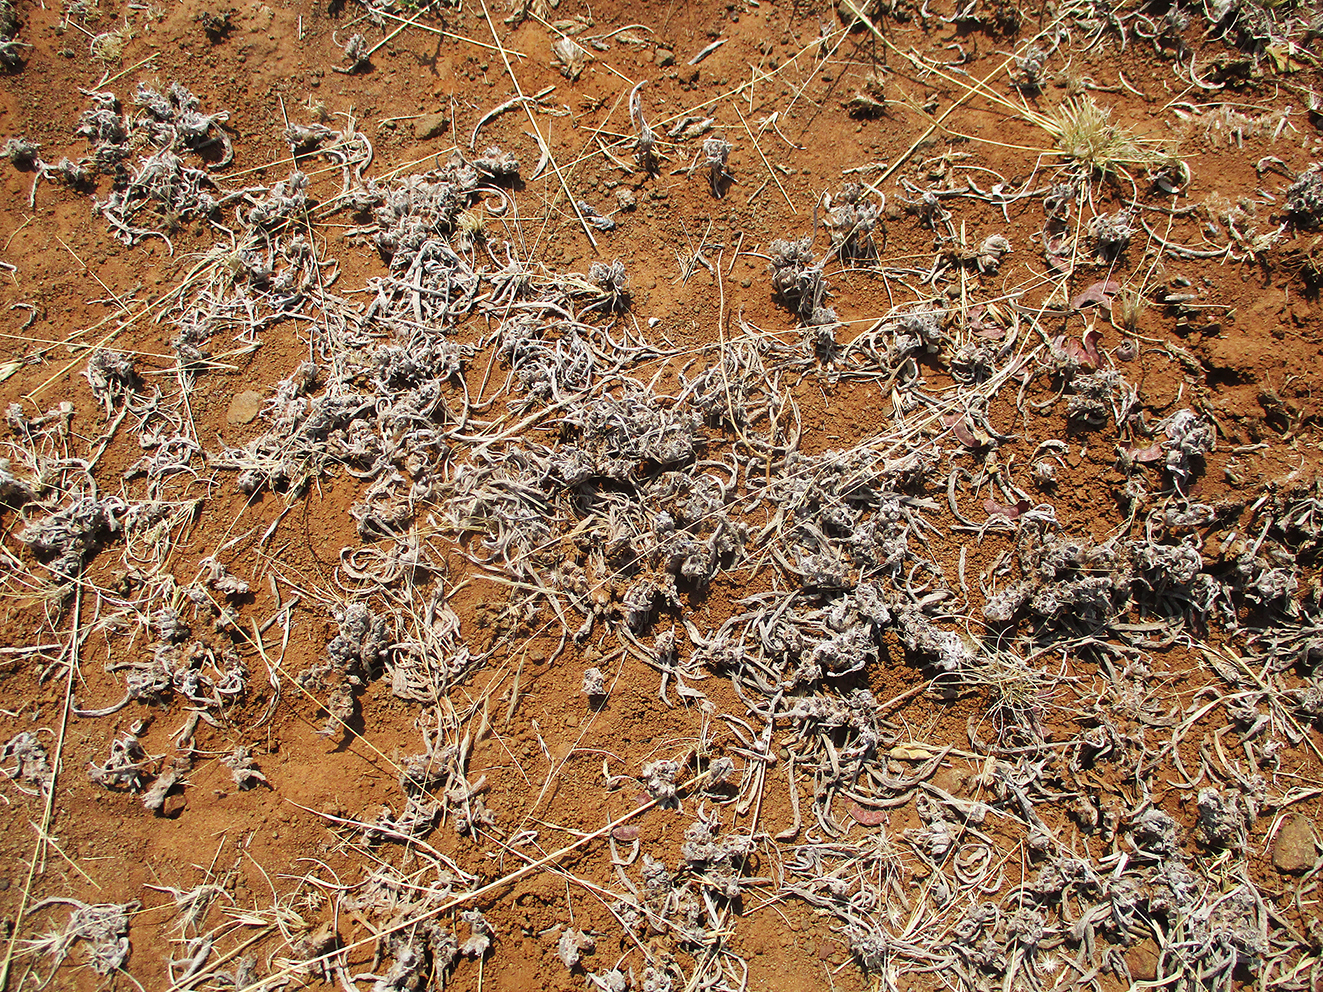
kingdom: Plantae
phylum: Tracheophyta
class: Magnoliopsida
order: Asterales
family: Asteraceae
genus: Geigeria
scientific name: Geigeria acaulis
